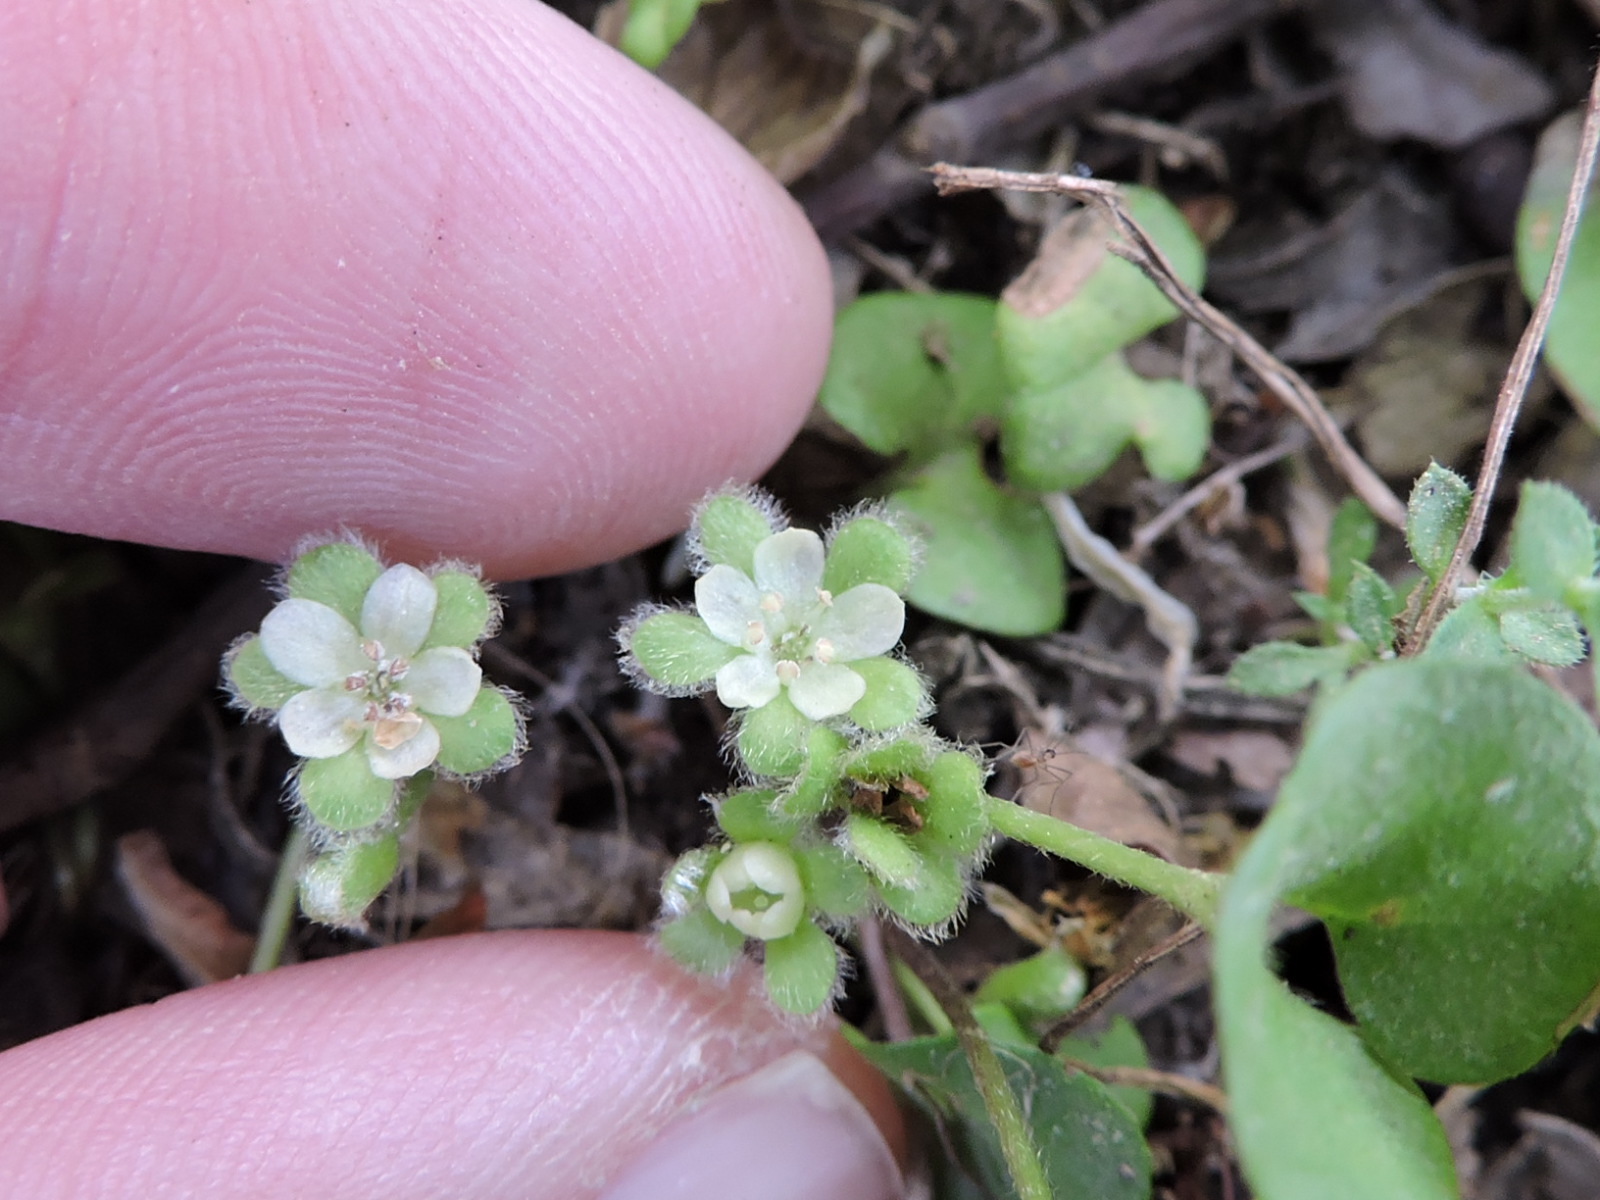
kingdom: Plantae
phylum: Tracheophyta
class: Magnoliopsida
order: Solanales
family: Convolvulaceae
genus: Dichondra
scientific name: Dichondra carolinensis
